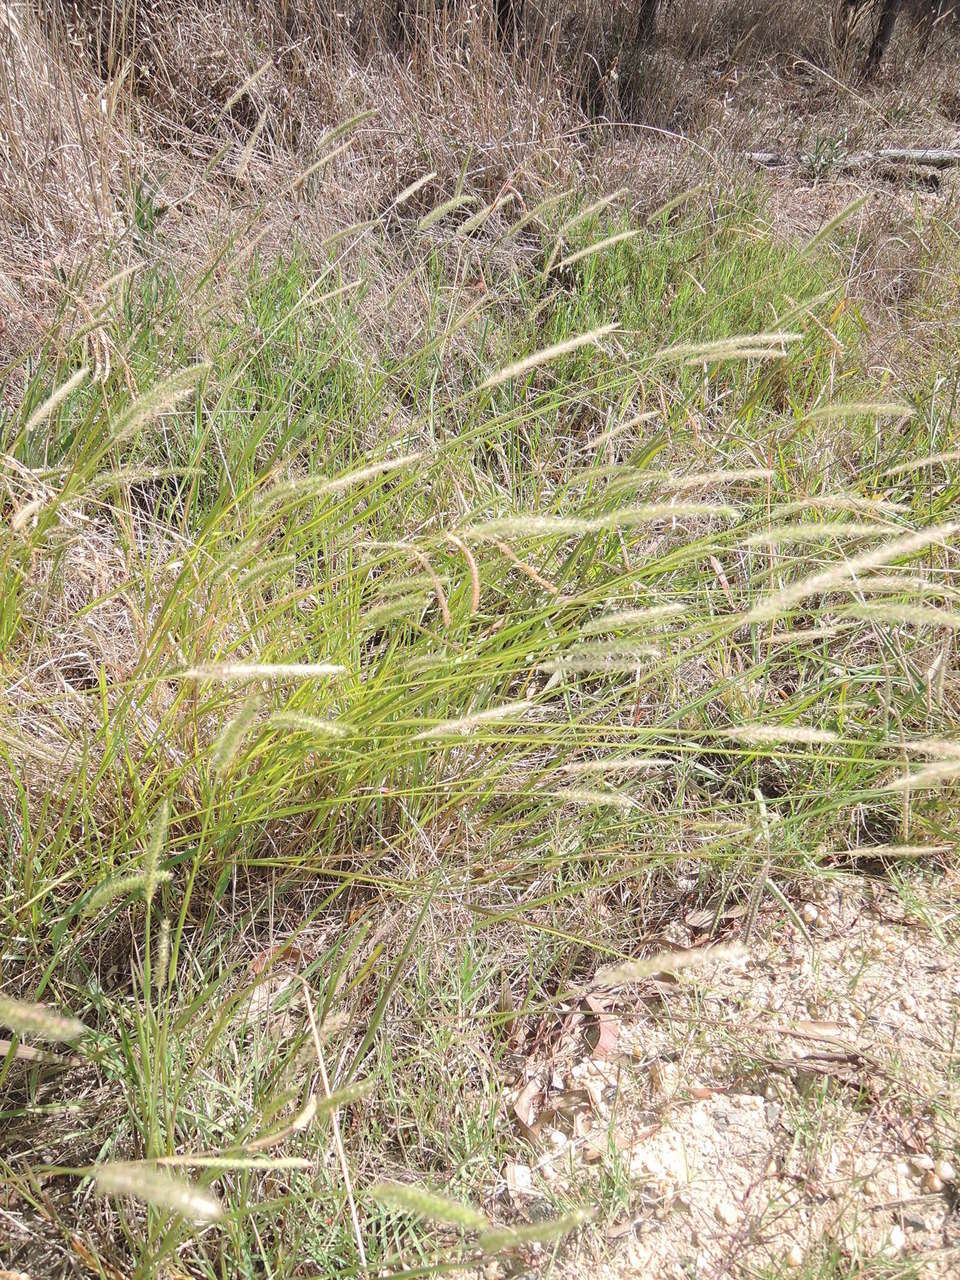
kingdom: Plantae
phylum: Tracheophyta
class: Liliopsida
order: Poales
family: Poaceae
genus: Setaria
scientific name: Setaria parviflora
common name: Knotroot bristle-grass
